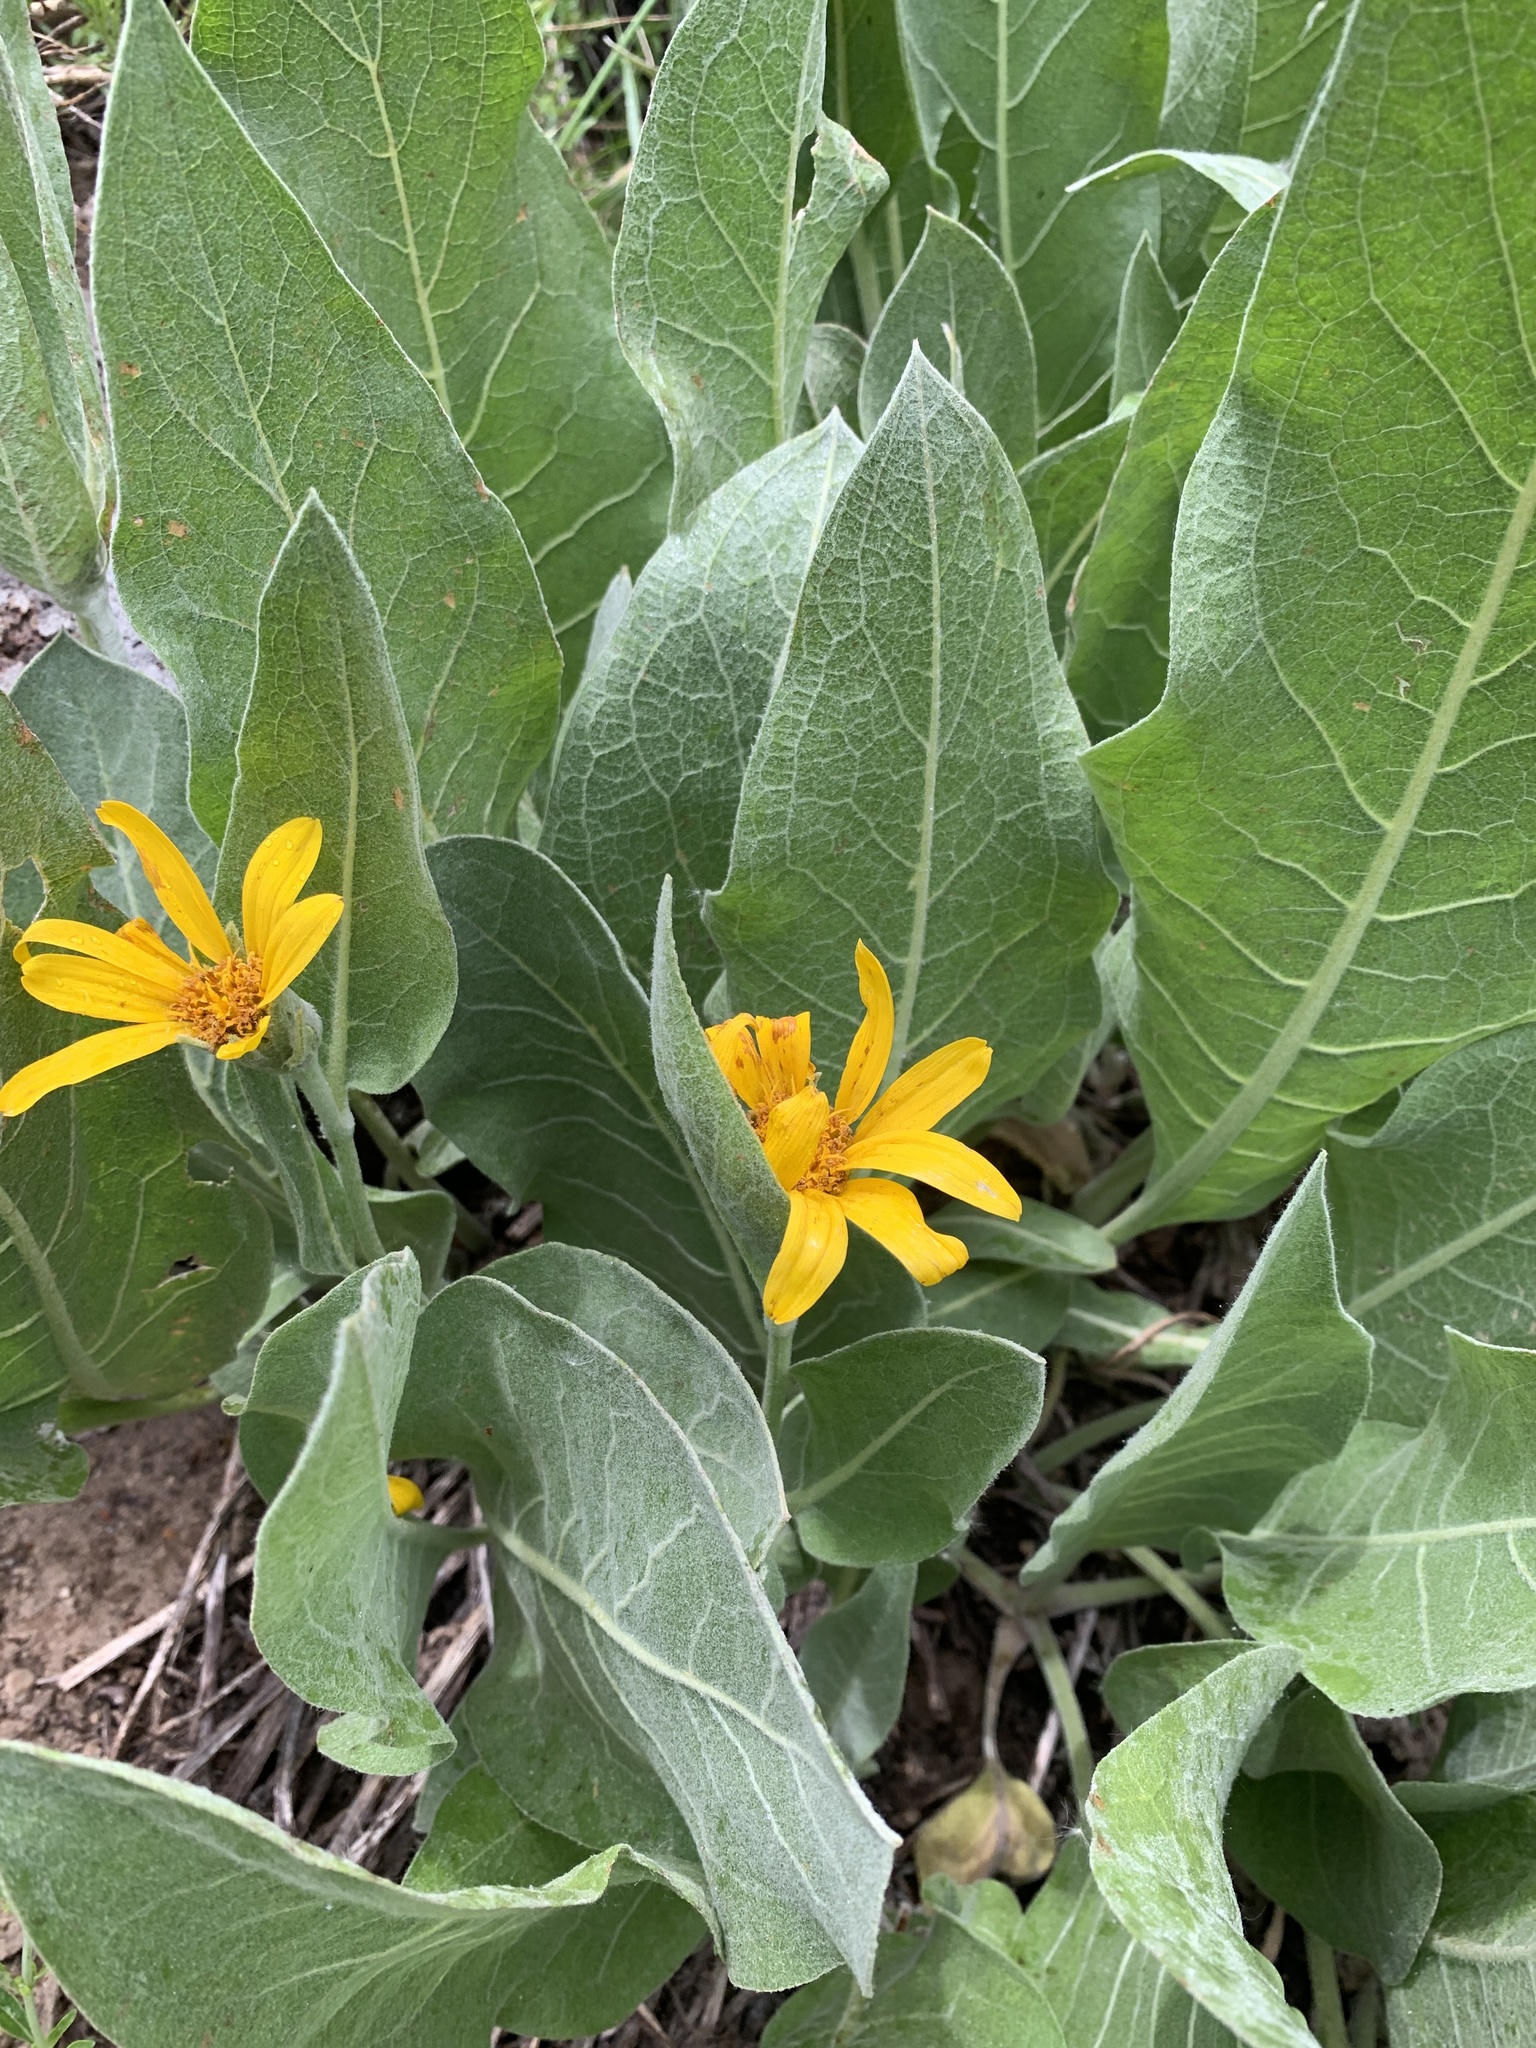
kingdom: Plantae
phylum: Tracheophyta
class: Magnoliopsida
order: Asterales
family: Asteraceae
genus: Wyethia
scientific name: Wyethia mollis
